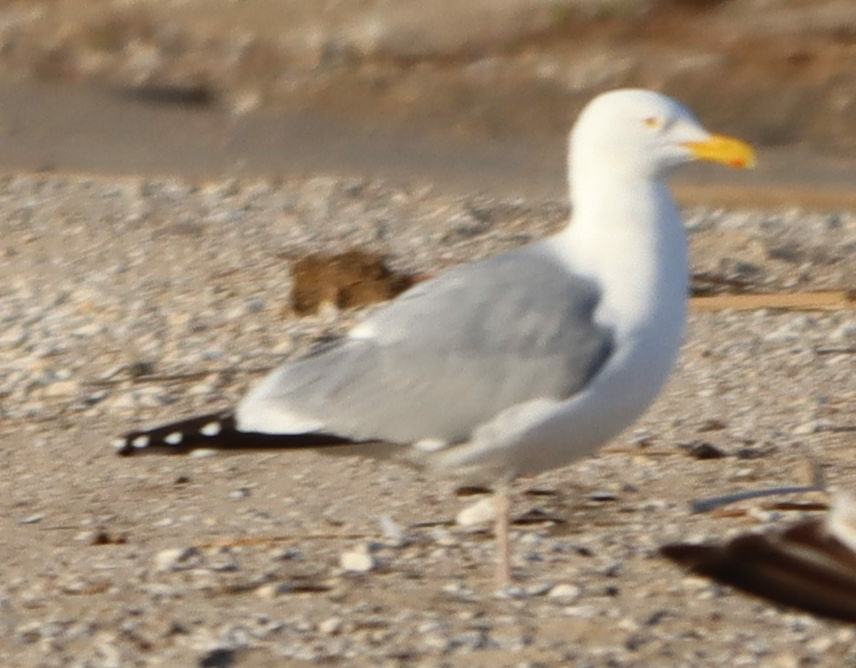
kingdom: Animalia
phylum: Chordata
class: Aves
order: Charadriiformes
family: Laridae
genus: Larus
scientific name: Larus argentatus
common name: Herring gull
